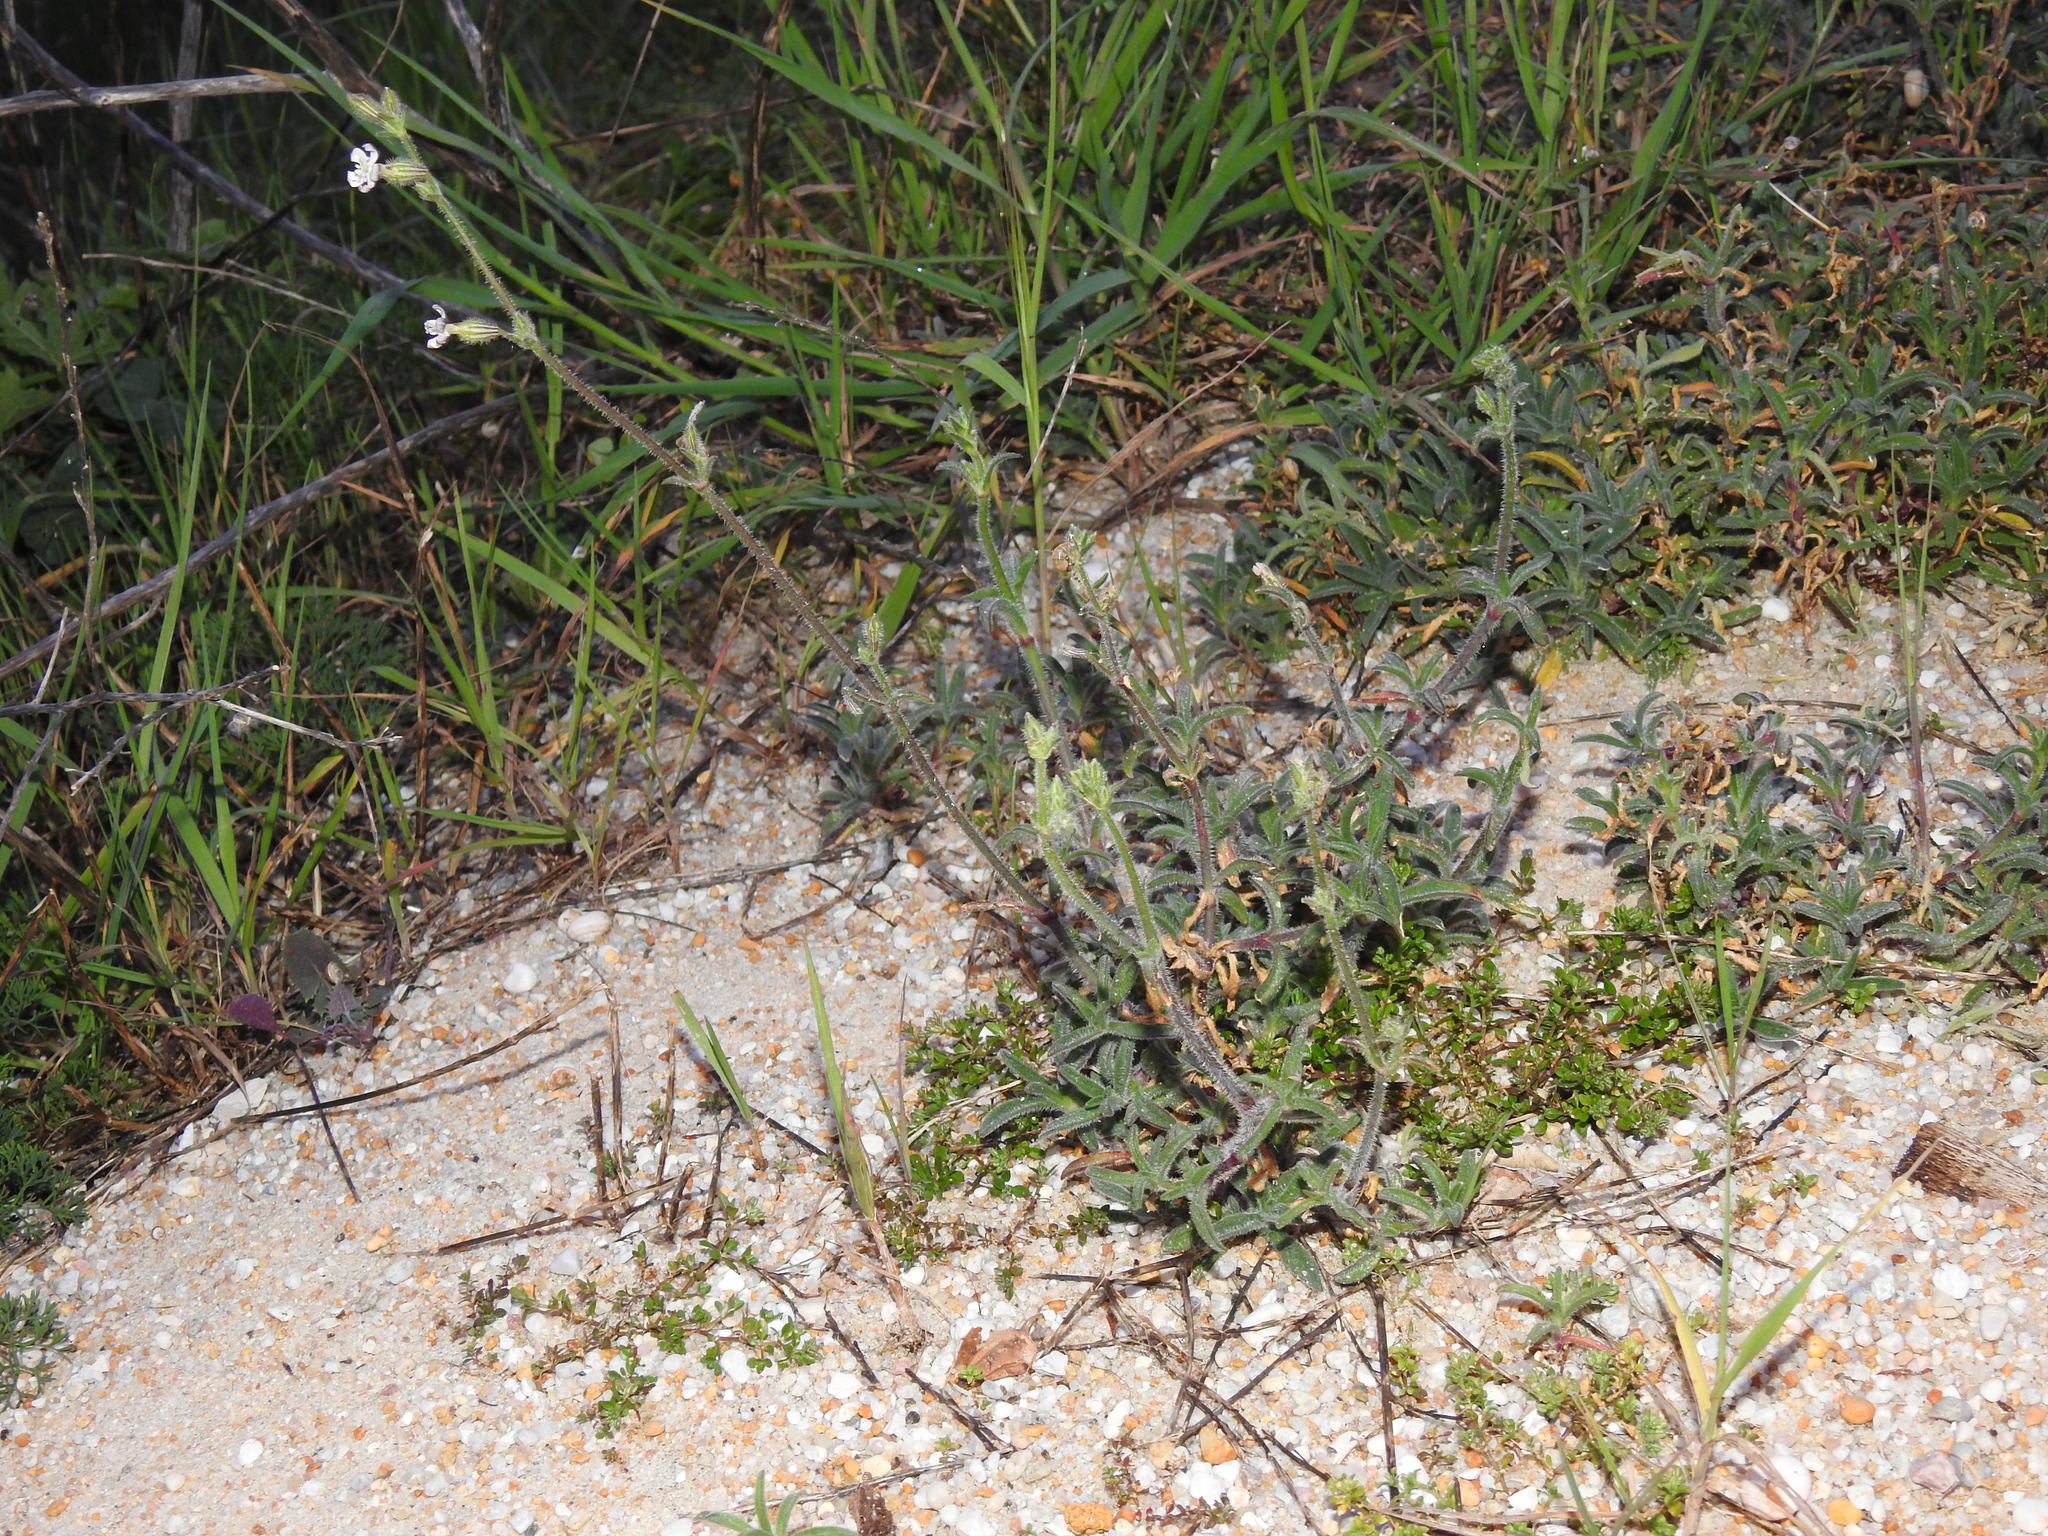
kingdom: Plantae
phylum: Tracheophyta
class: Magnoliopsida
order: Caryophyllales
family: Caryophyllaceae
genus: Silene
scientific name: Silene nicaeensis
